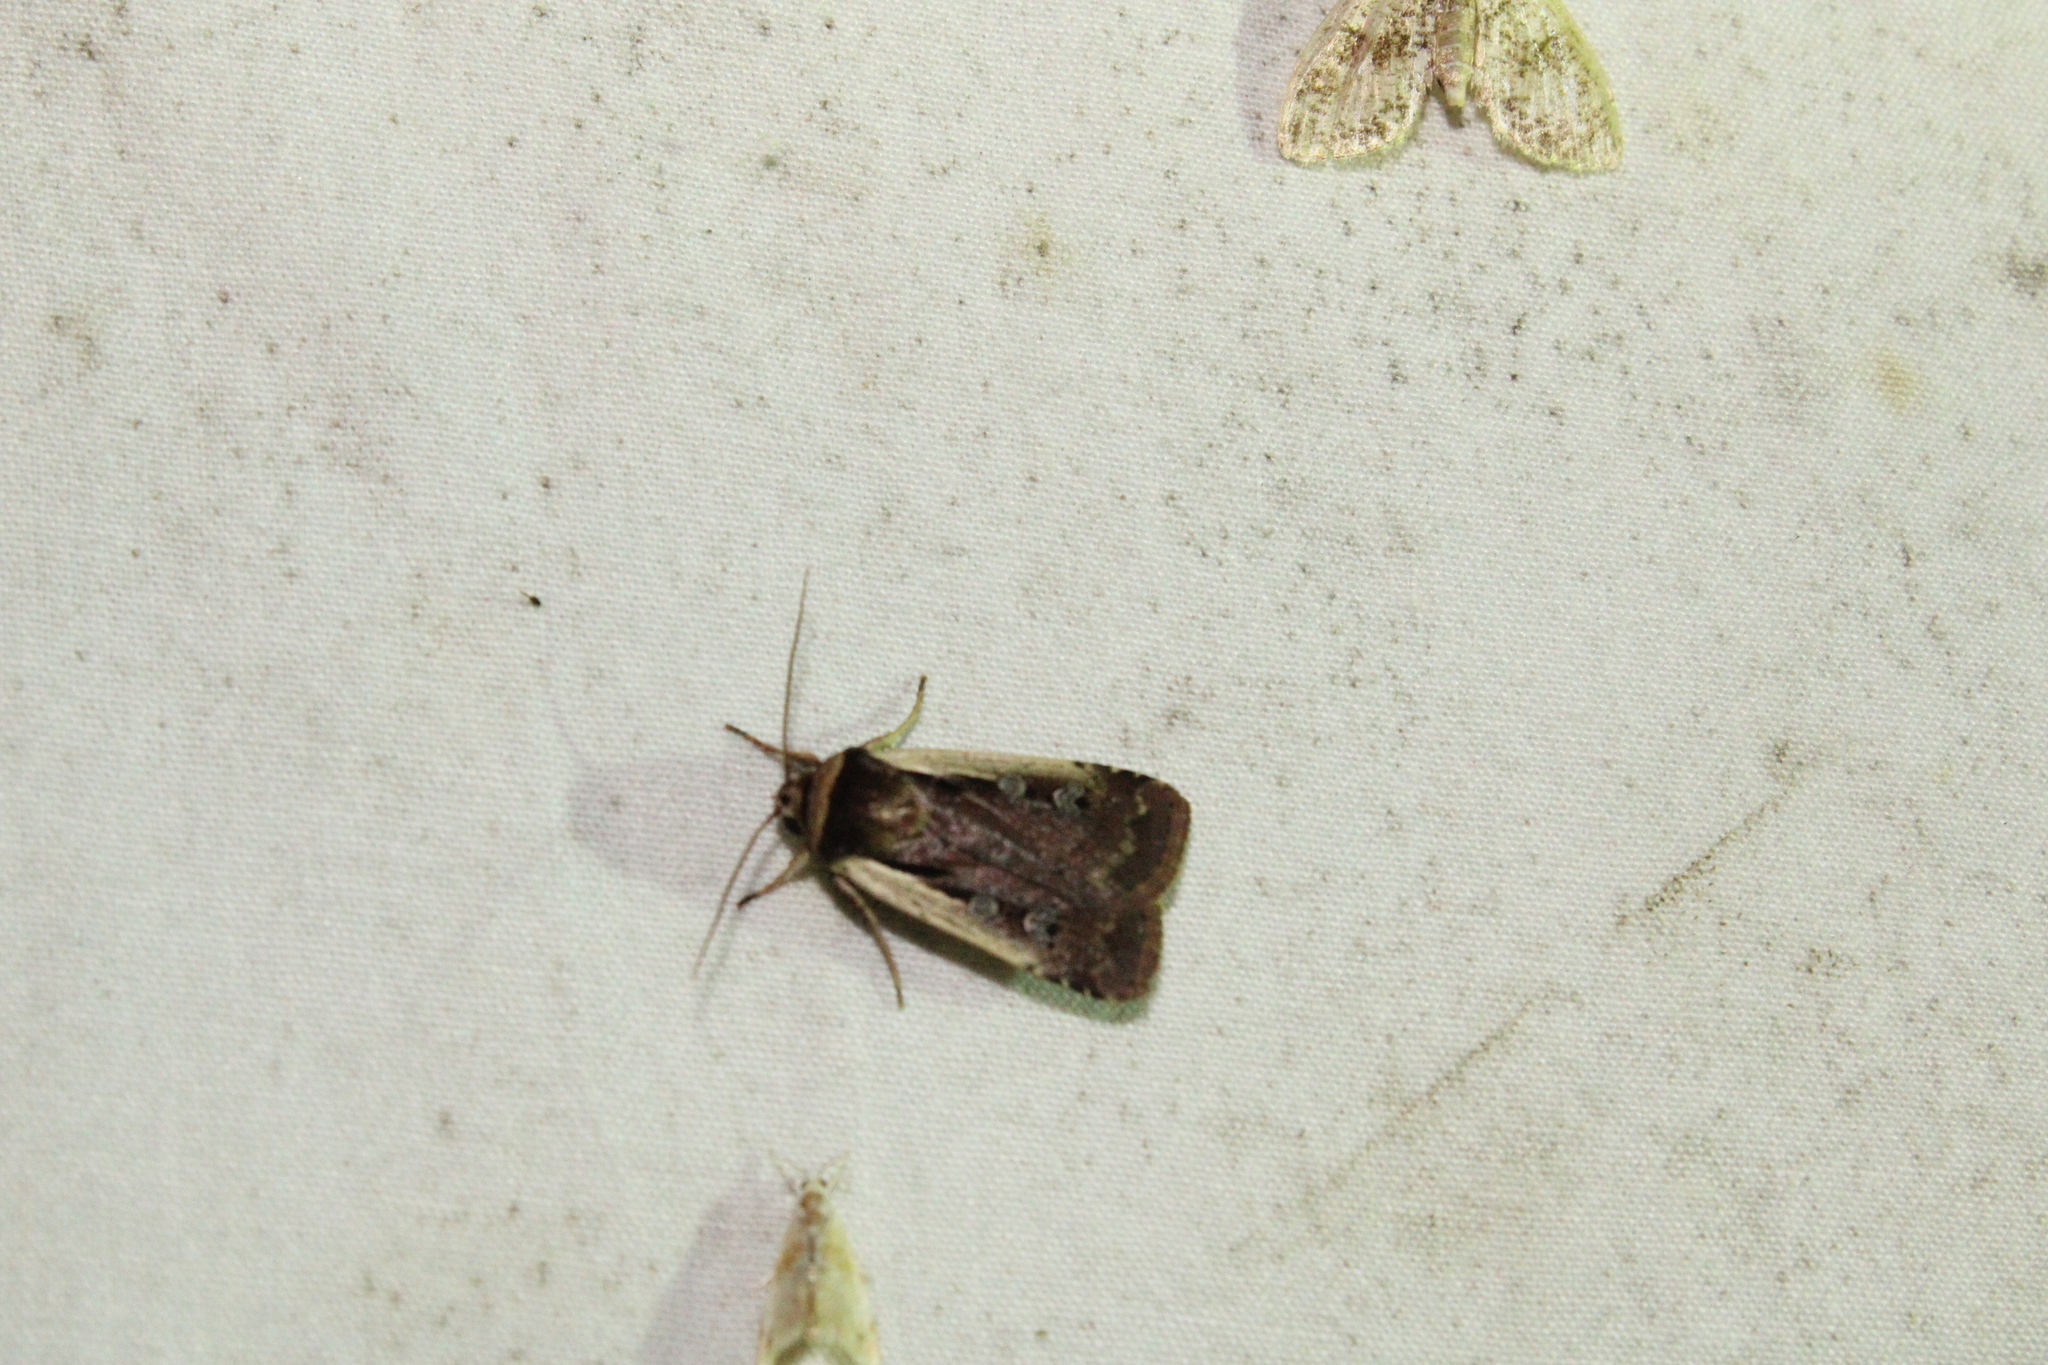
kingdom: Animalia
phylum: Arthropoda
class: Insecta
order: Lepidoptera
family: Noctuidae
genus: Ochropleura
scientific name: Ochropleura implecta
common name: Flame-shouldered dart
